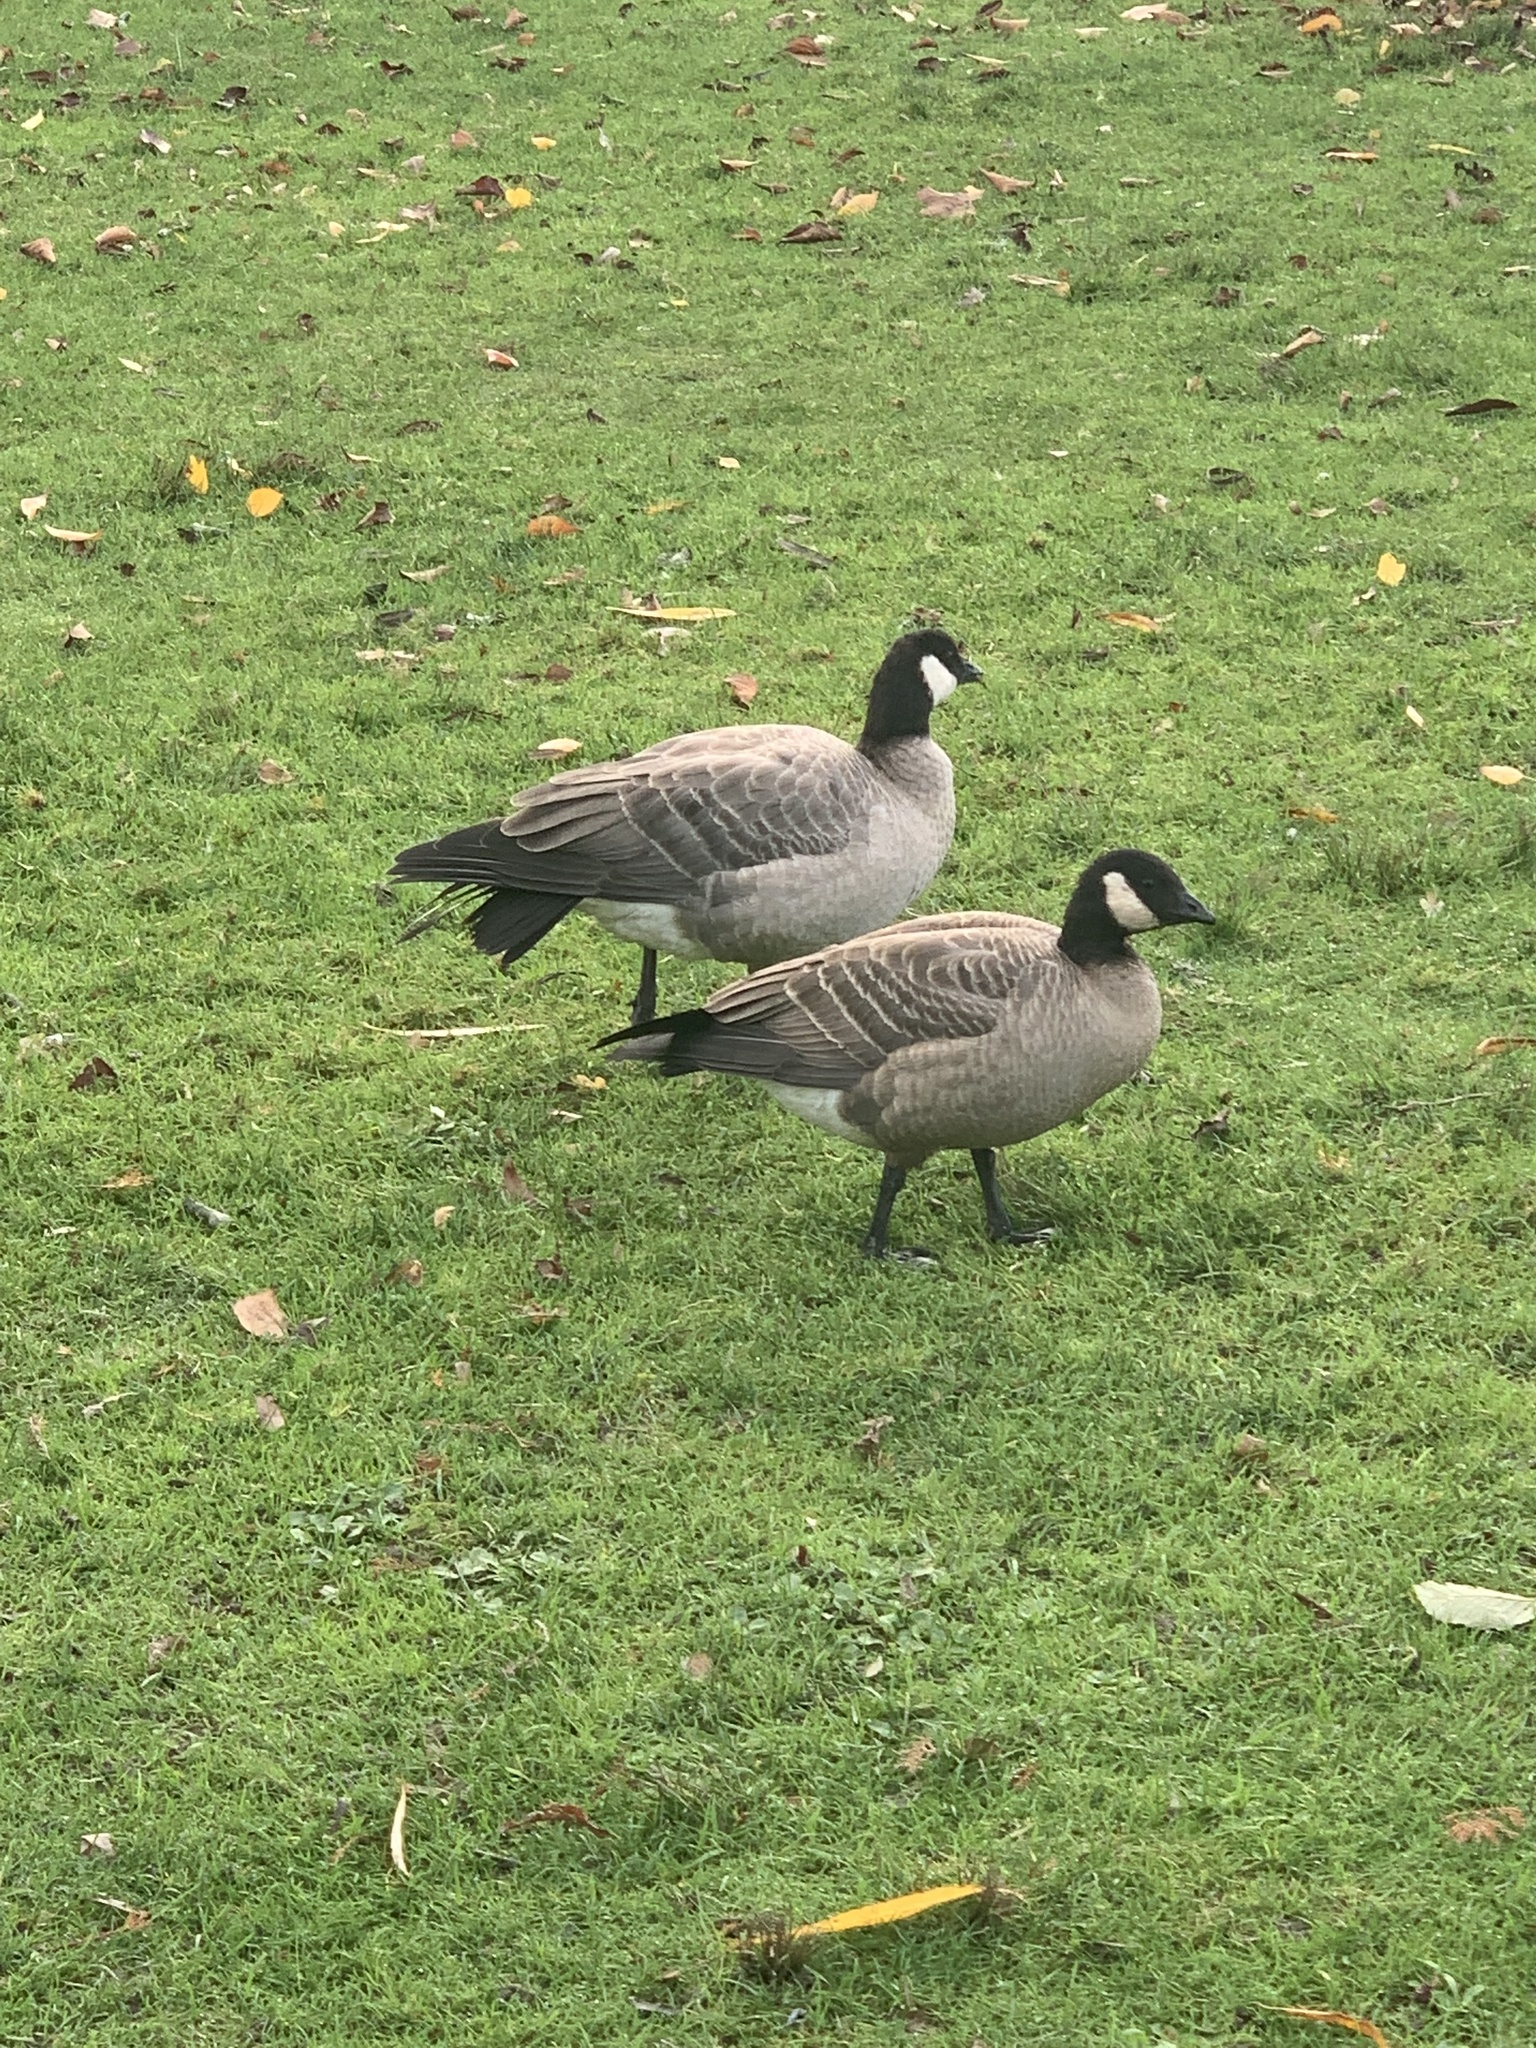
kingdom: Animalia
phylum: Chordata
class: Aves
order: Anseriformes
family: Anatidae
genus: Branta
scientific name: Branta hutchinsii
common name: Cackling goose
